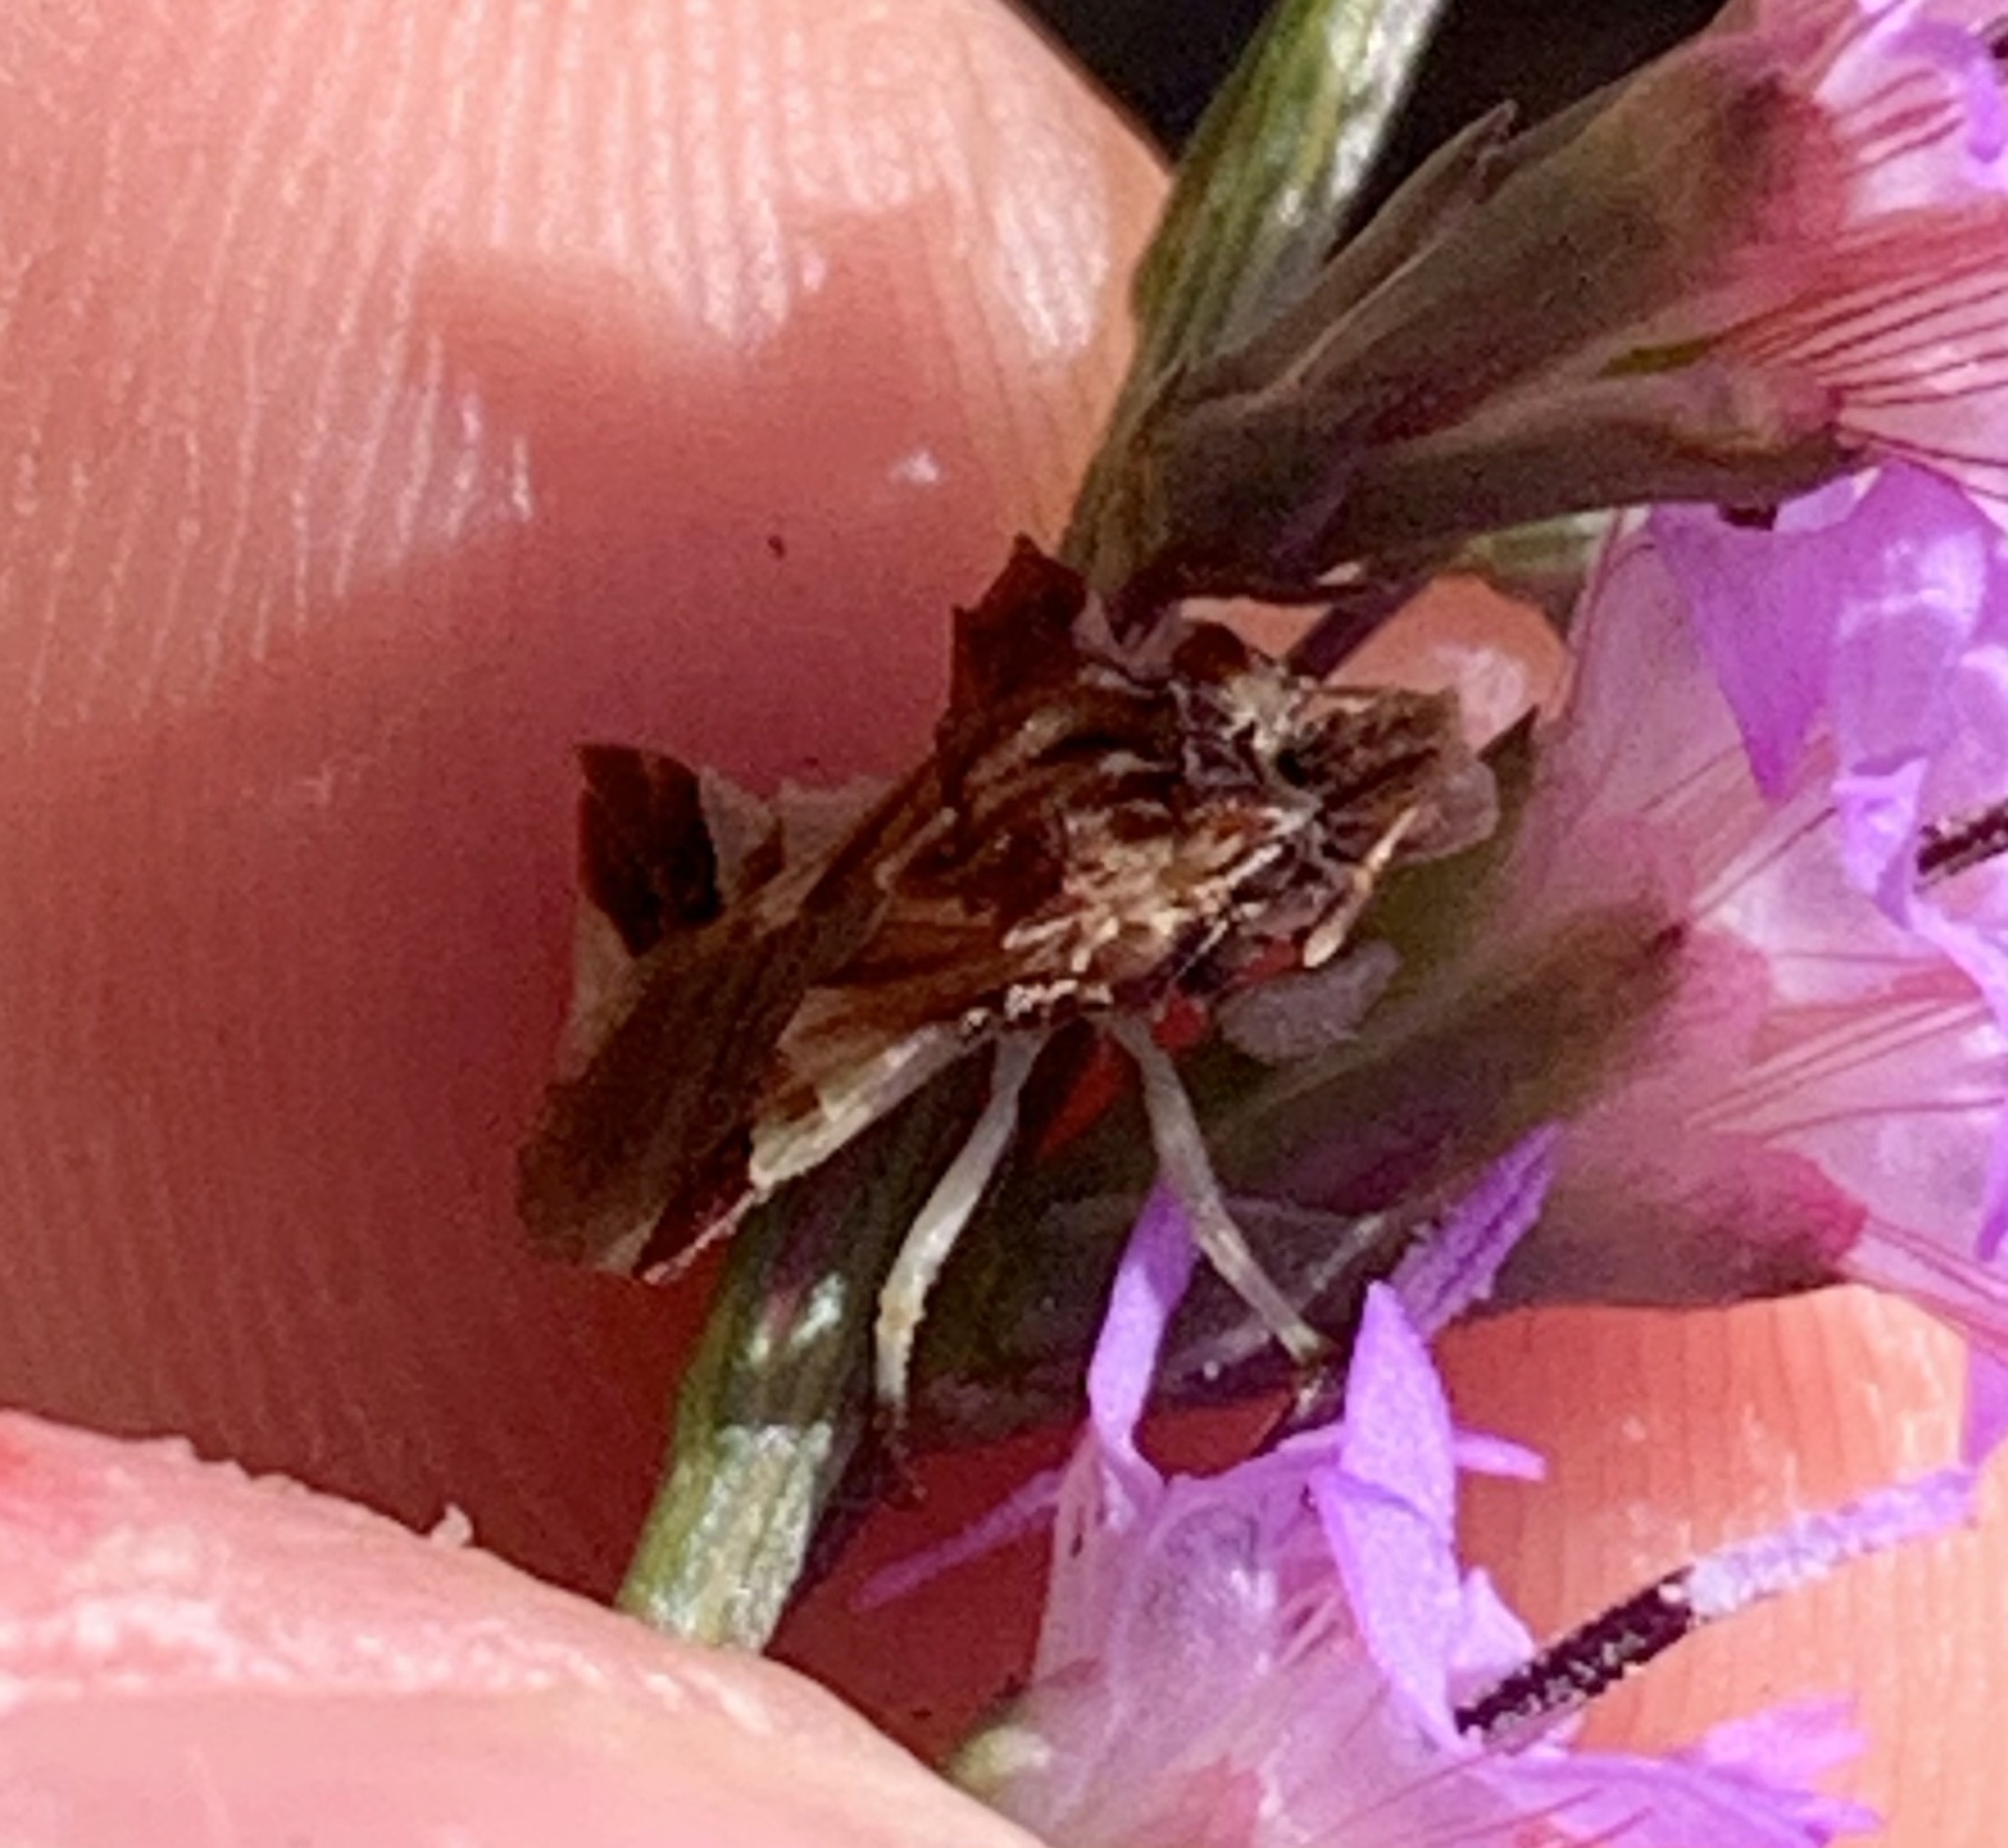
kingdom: Animalia
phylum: Arthropoda
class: Insecta
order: Hemiptera
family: Reduviidae
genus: Phymata
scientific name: Phymata fasciata
